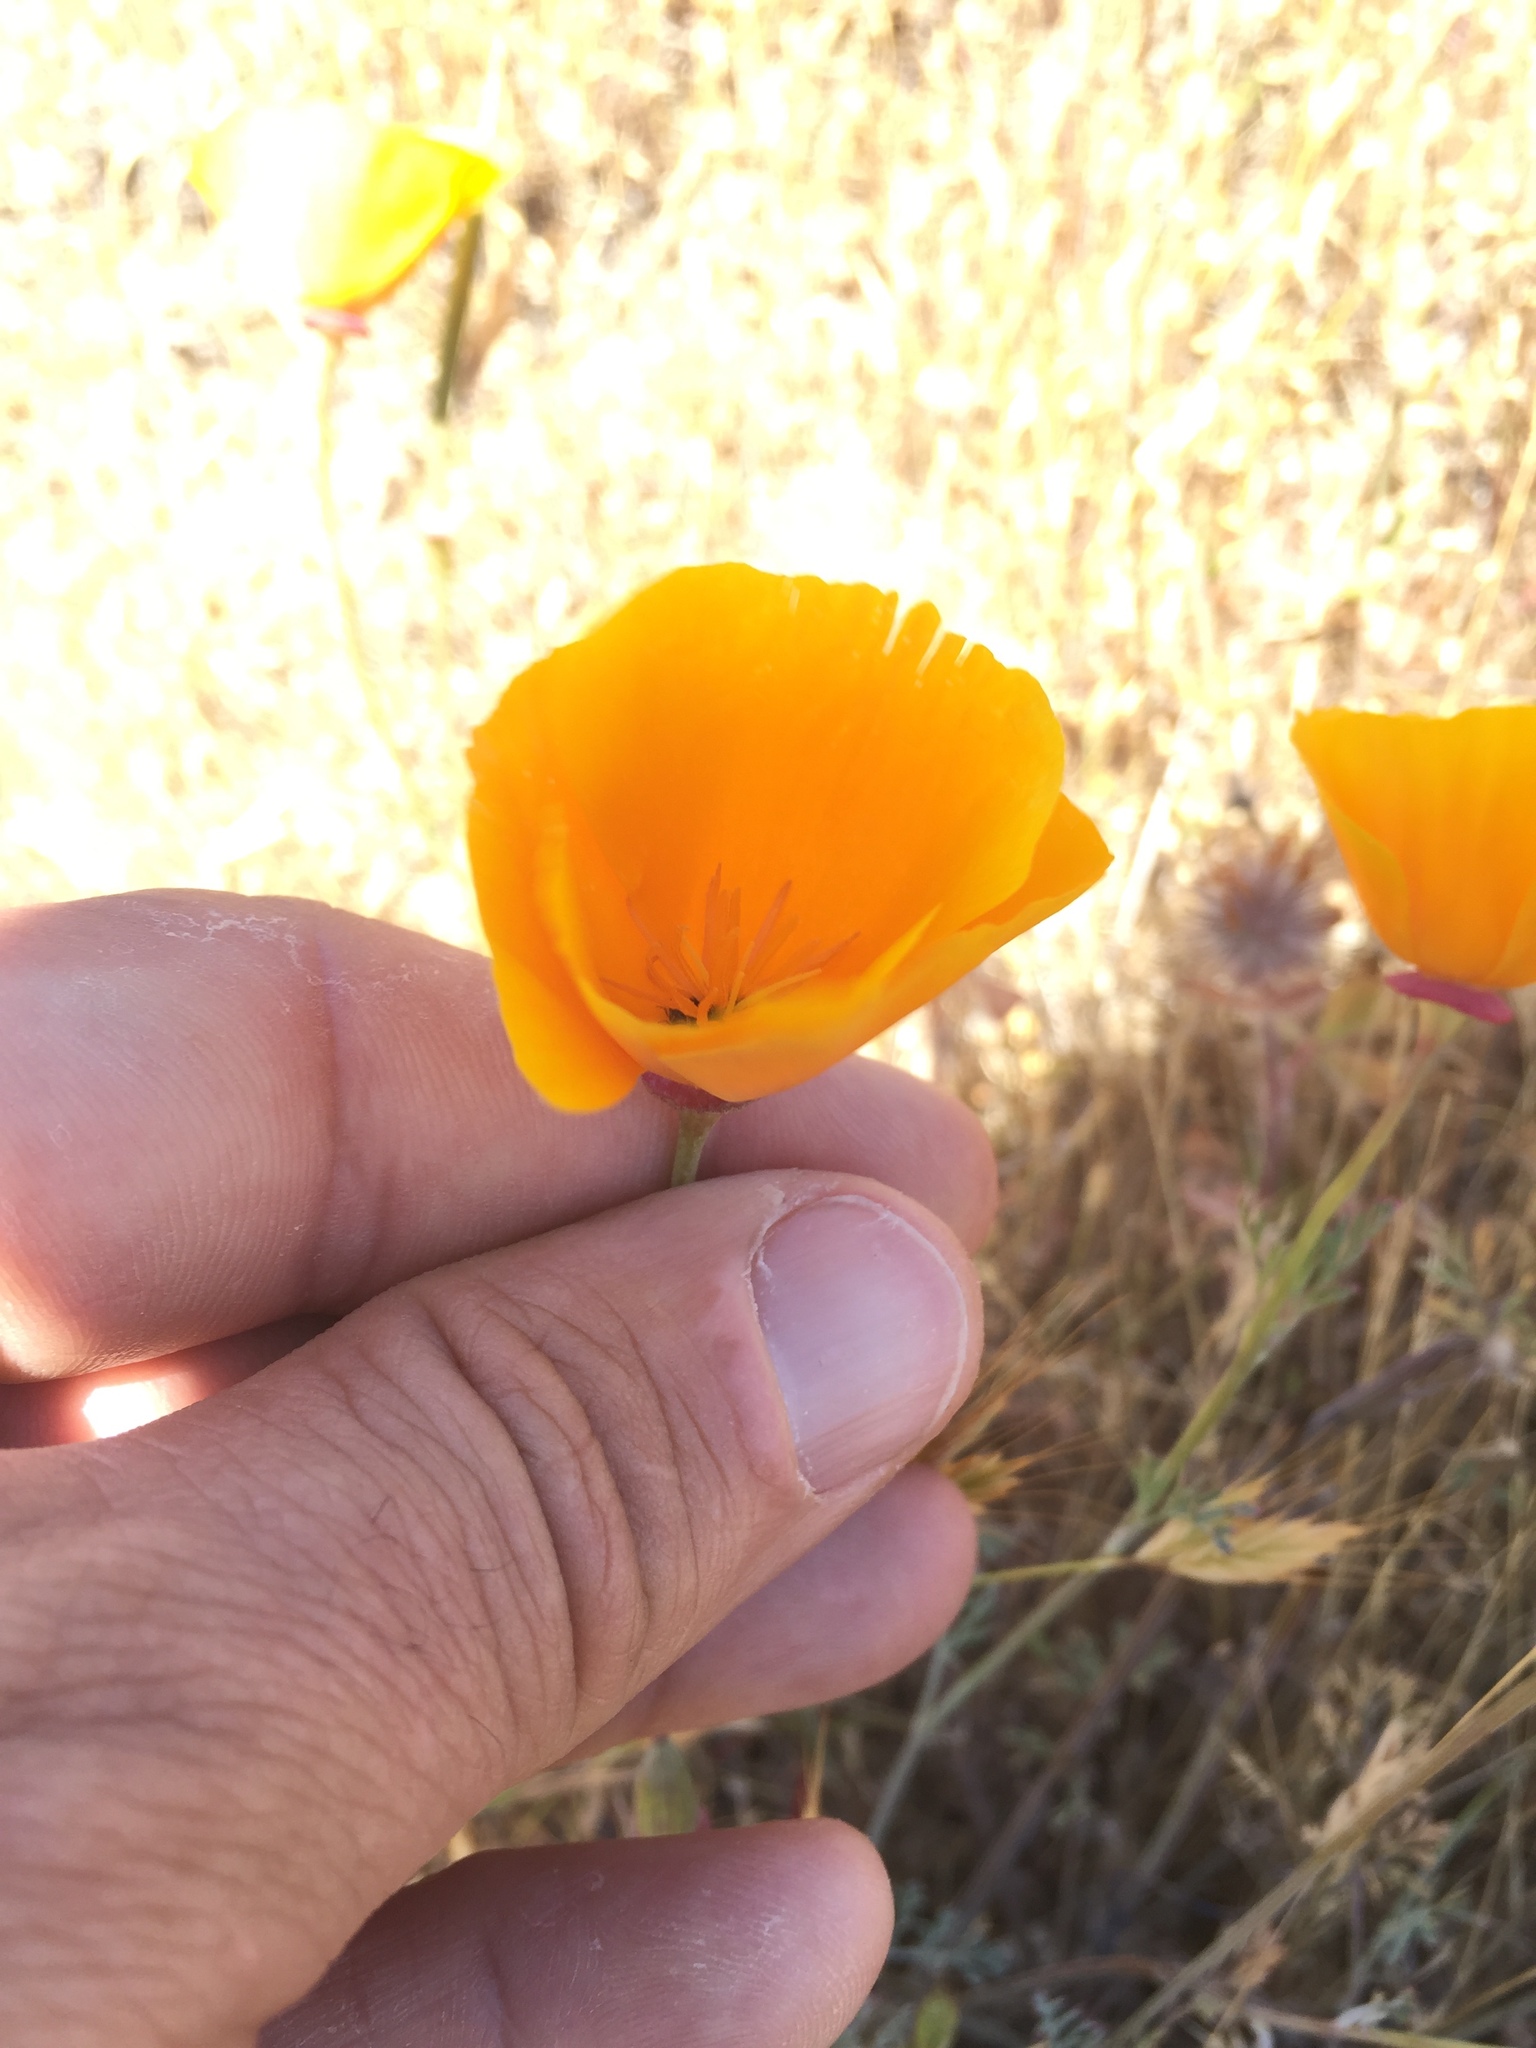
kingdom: Plantae
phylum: Tracheophyta
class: Magnoliopsida
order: Ranunculales
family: Papaveraceae
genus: Eschscholzia
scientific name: Eschscholzia californica
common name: California poppy
